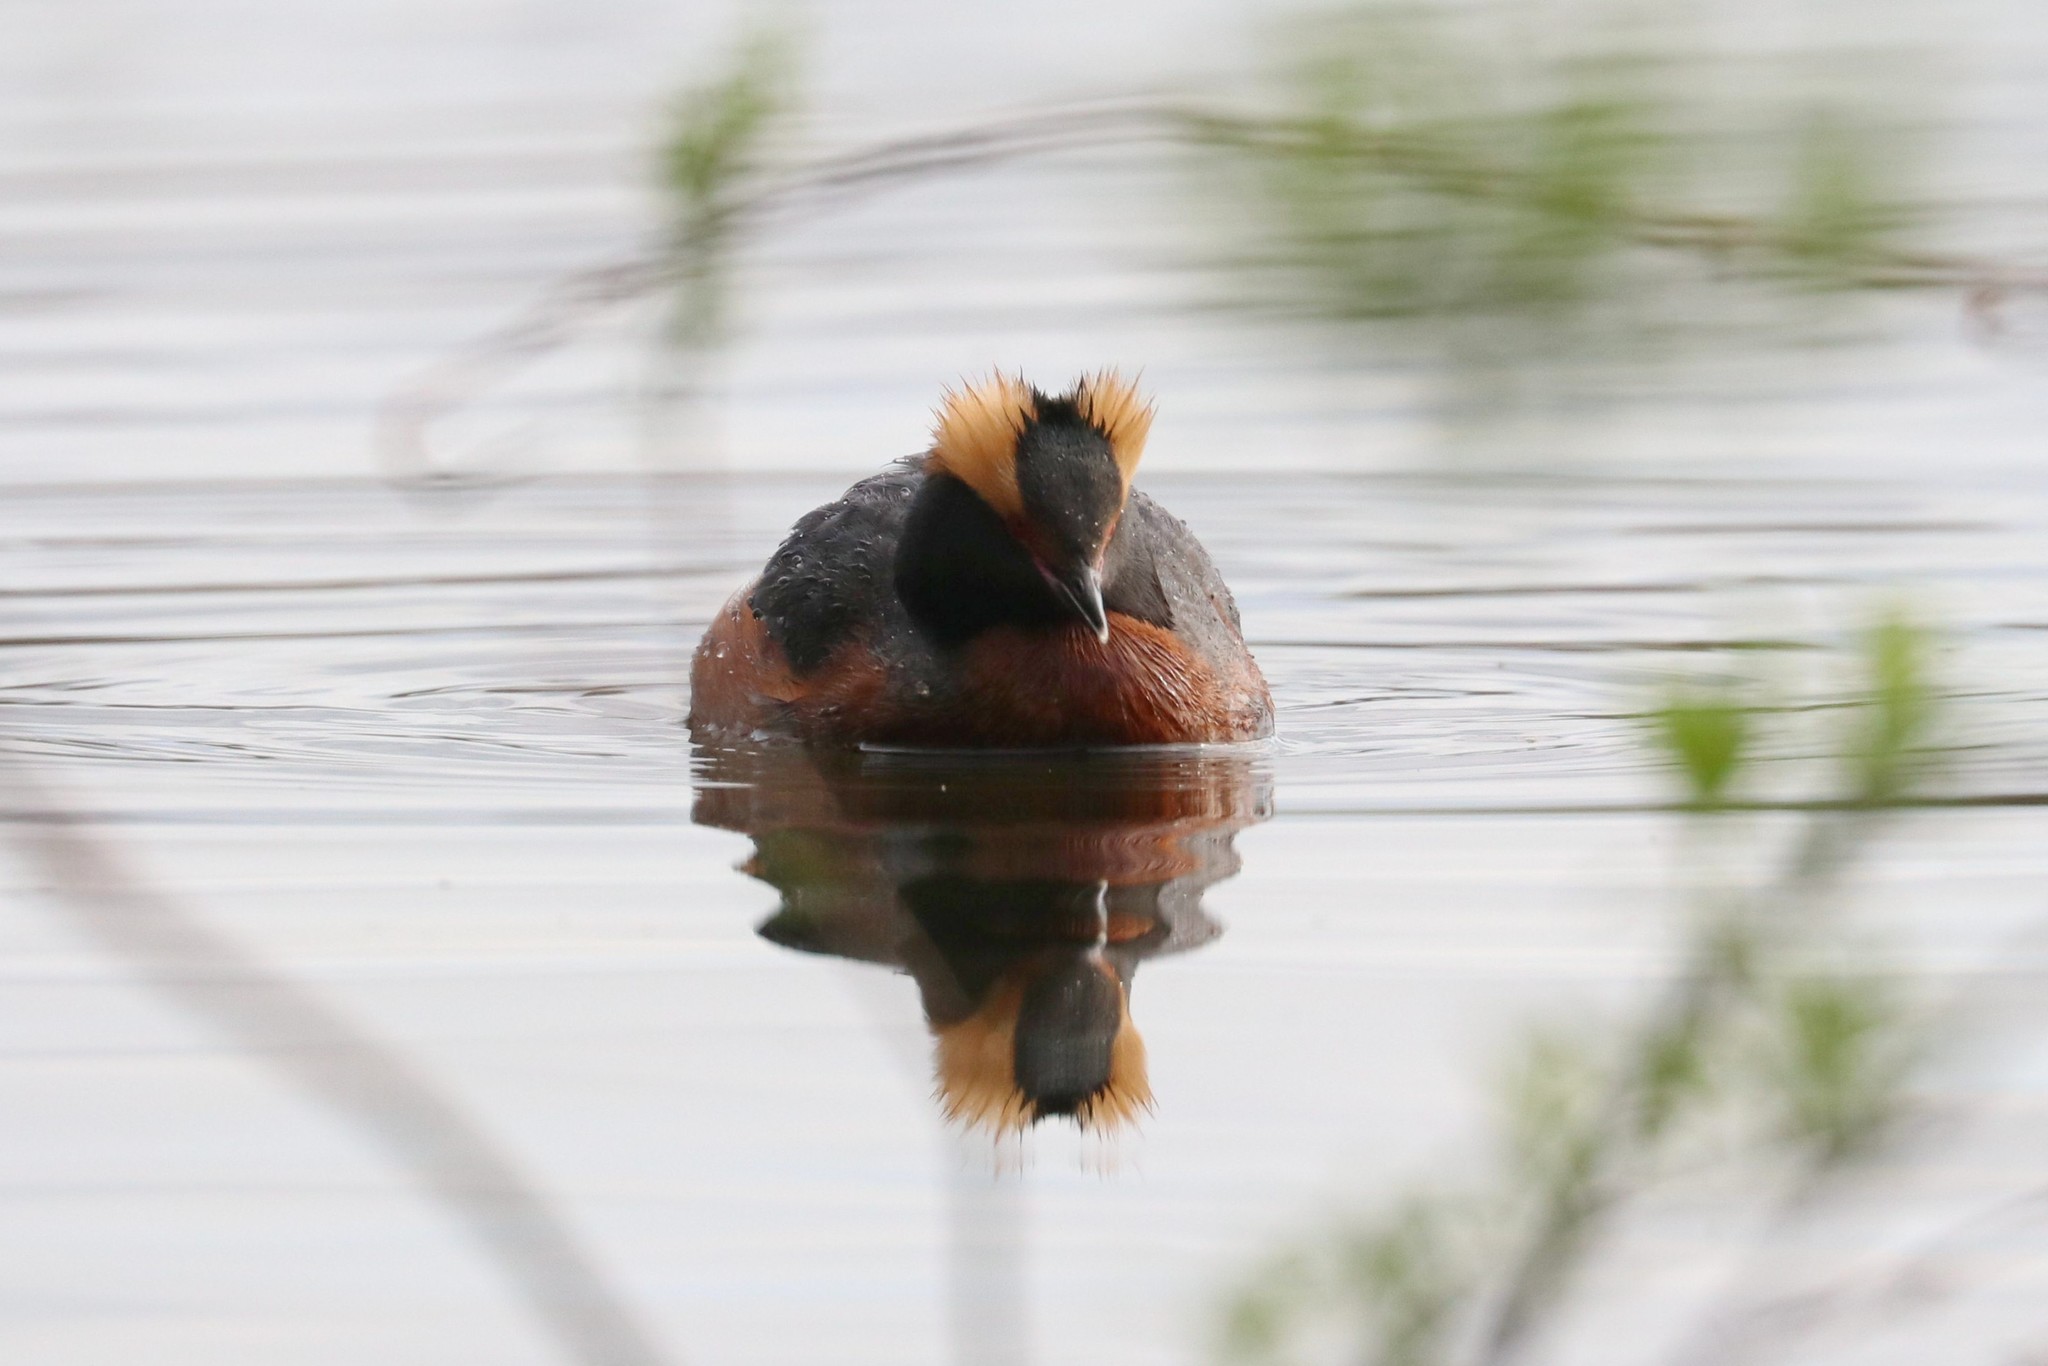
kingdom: Animalia
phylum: Chordata
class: Aves
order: Podicipediformes
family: Podicipedidae
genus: Podiceps
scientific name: Podiceps auritus
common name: Horned grebe
